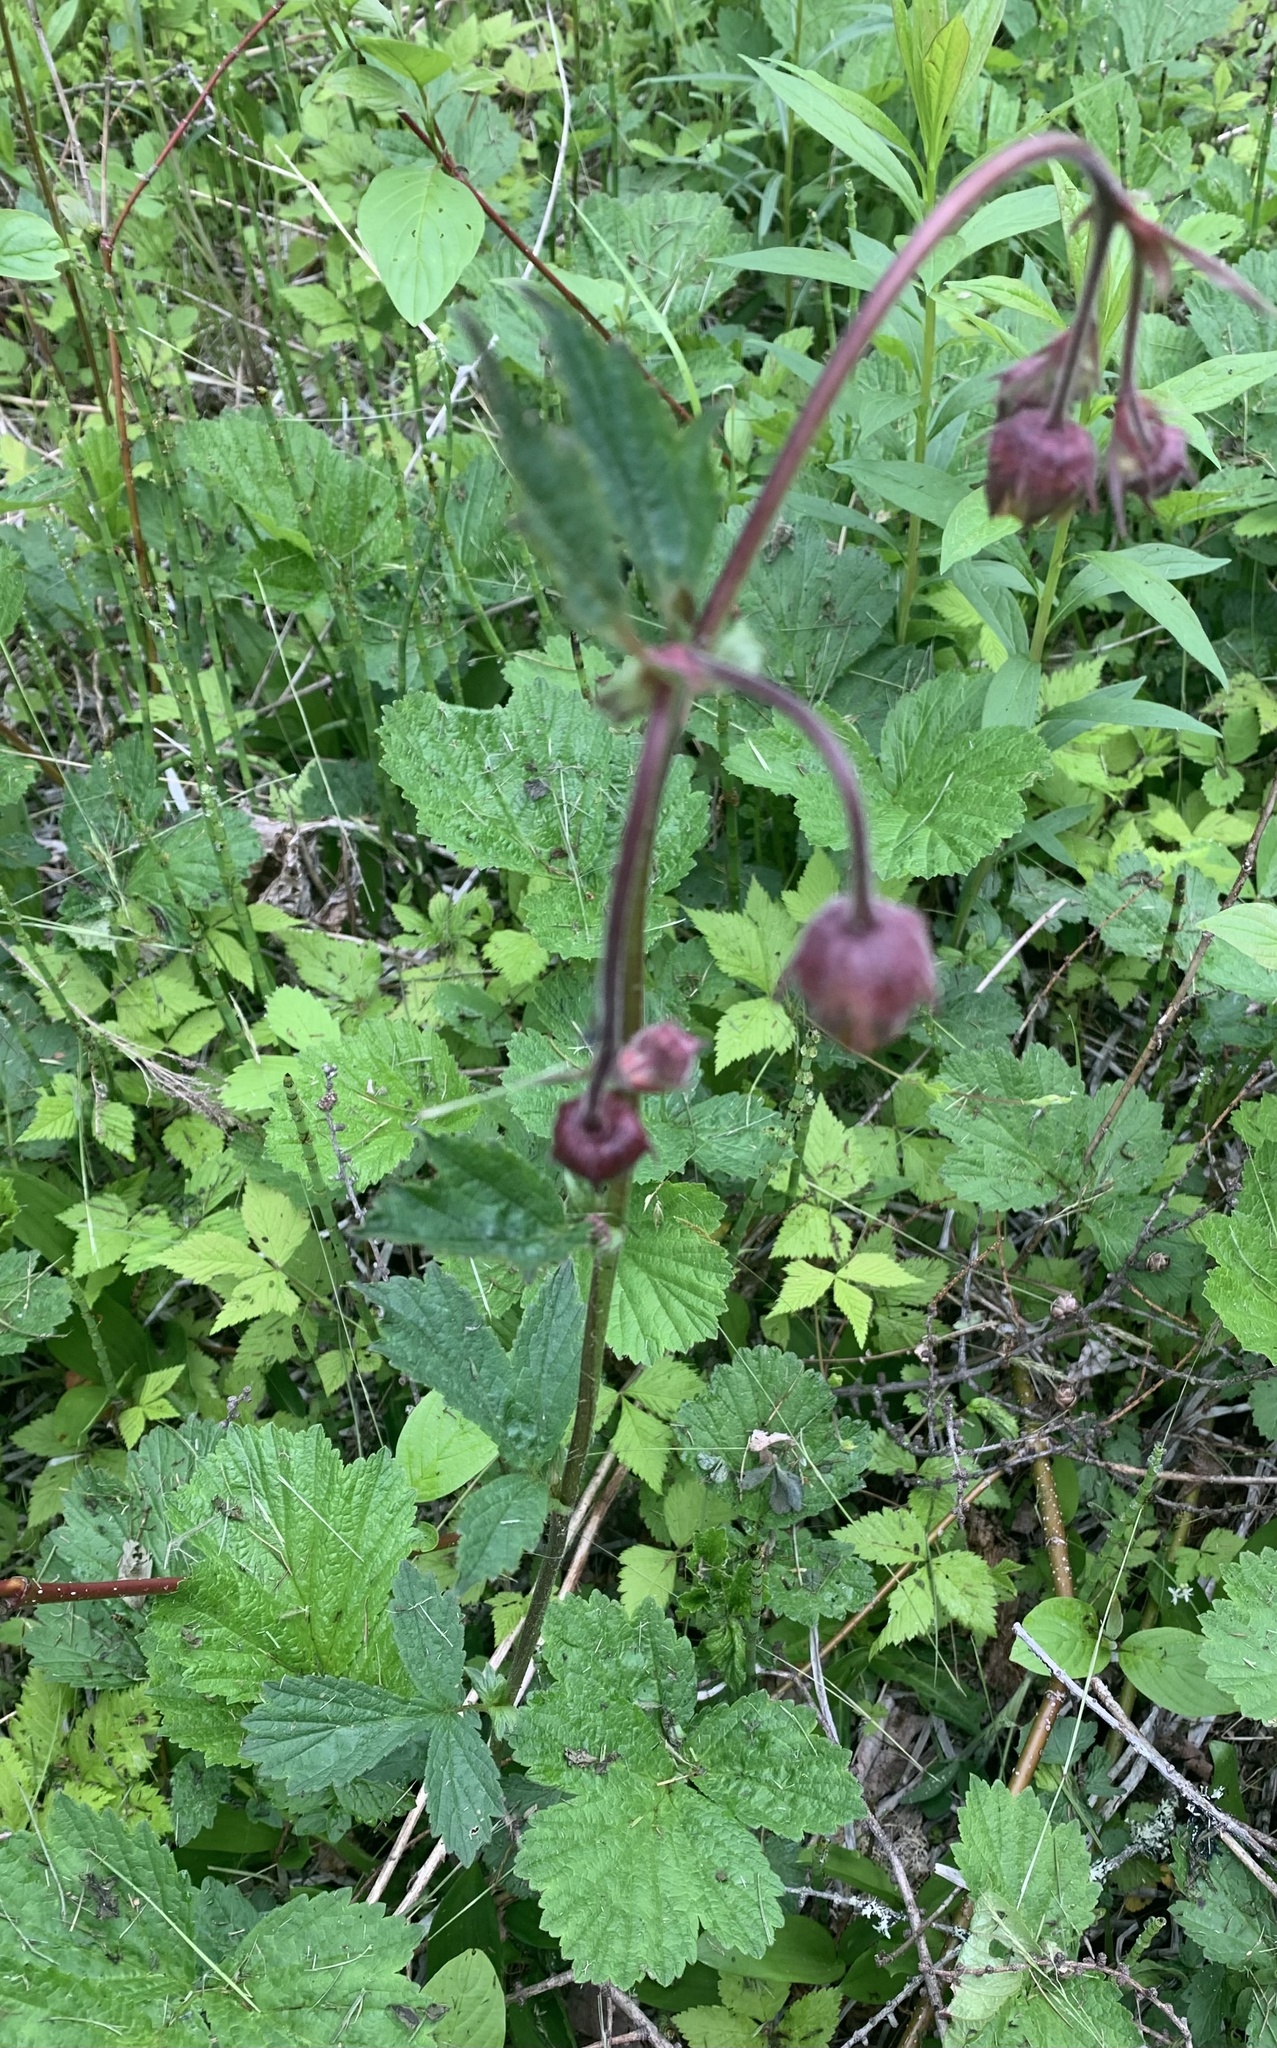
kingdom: Plantae
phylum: Tracheophyta
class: Magnoliopsida
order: Rosales
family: Rosaceae
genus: Geum
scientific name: Geum rivale
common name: Water avens
